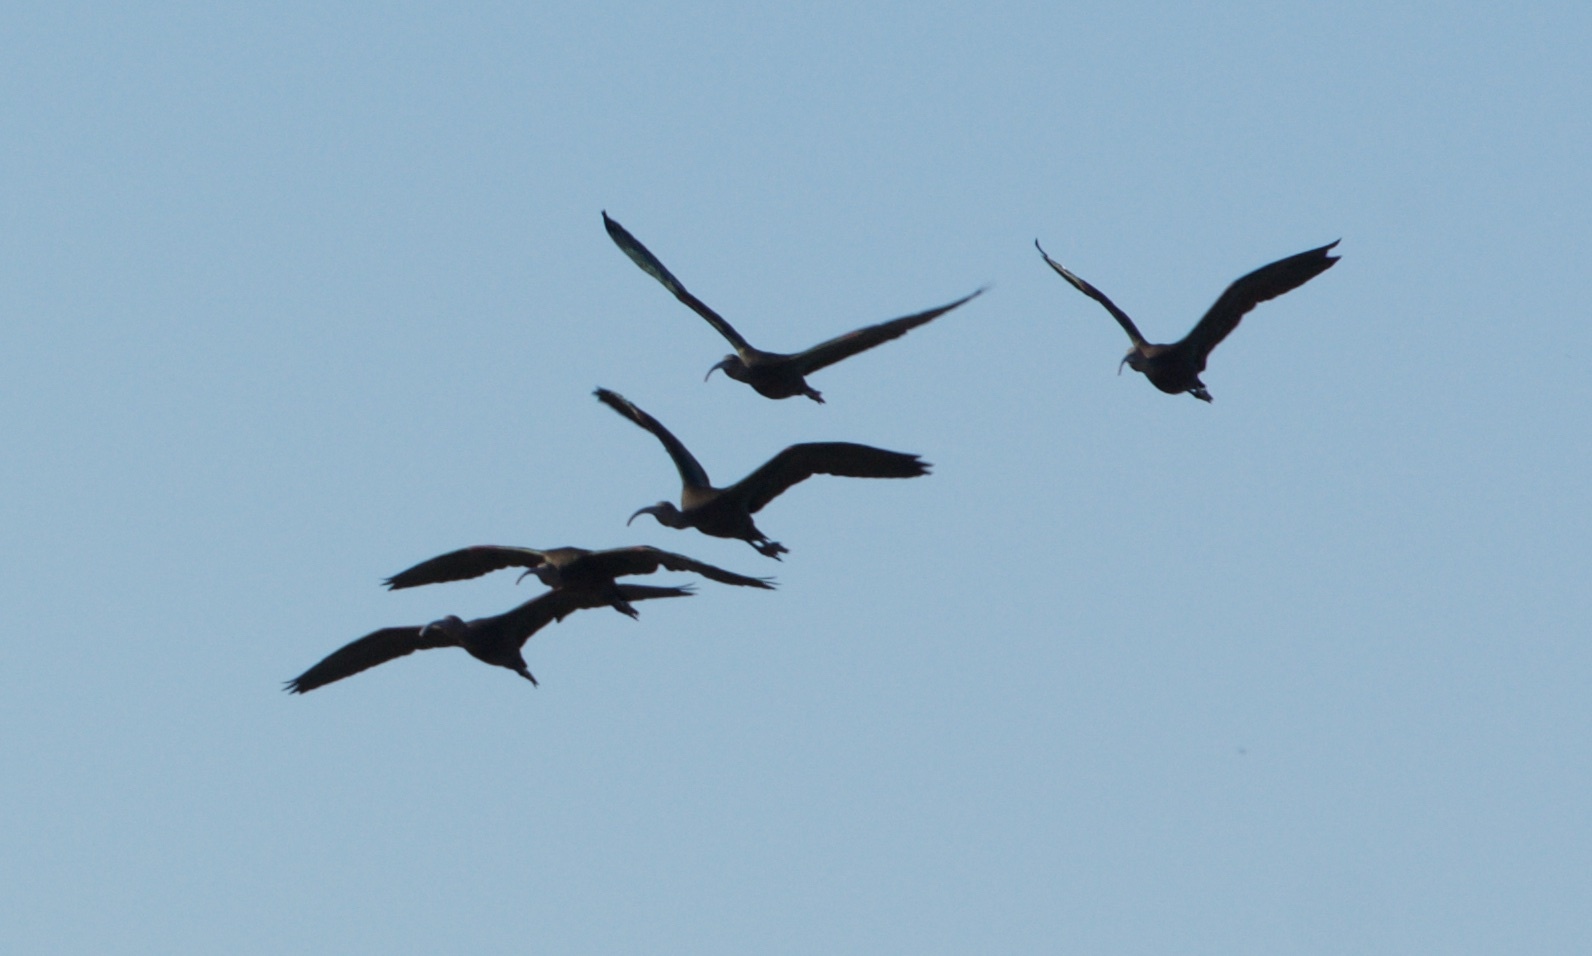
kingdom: Animalia
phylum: Chordata
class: Aves
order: Pelecaniformes
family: Threskiornithidae
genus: Plegadis
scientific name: Plegadis chihi
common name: White-faced ibis
